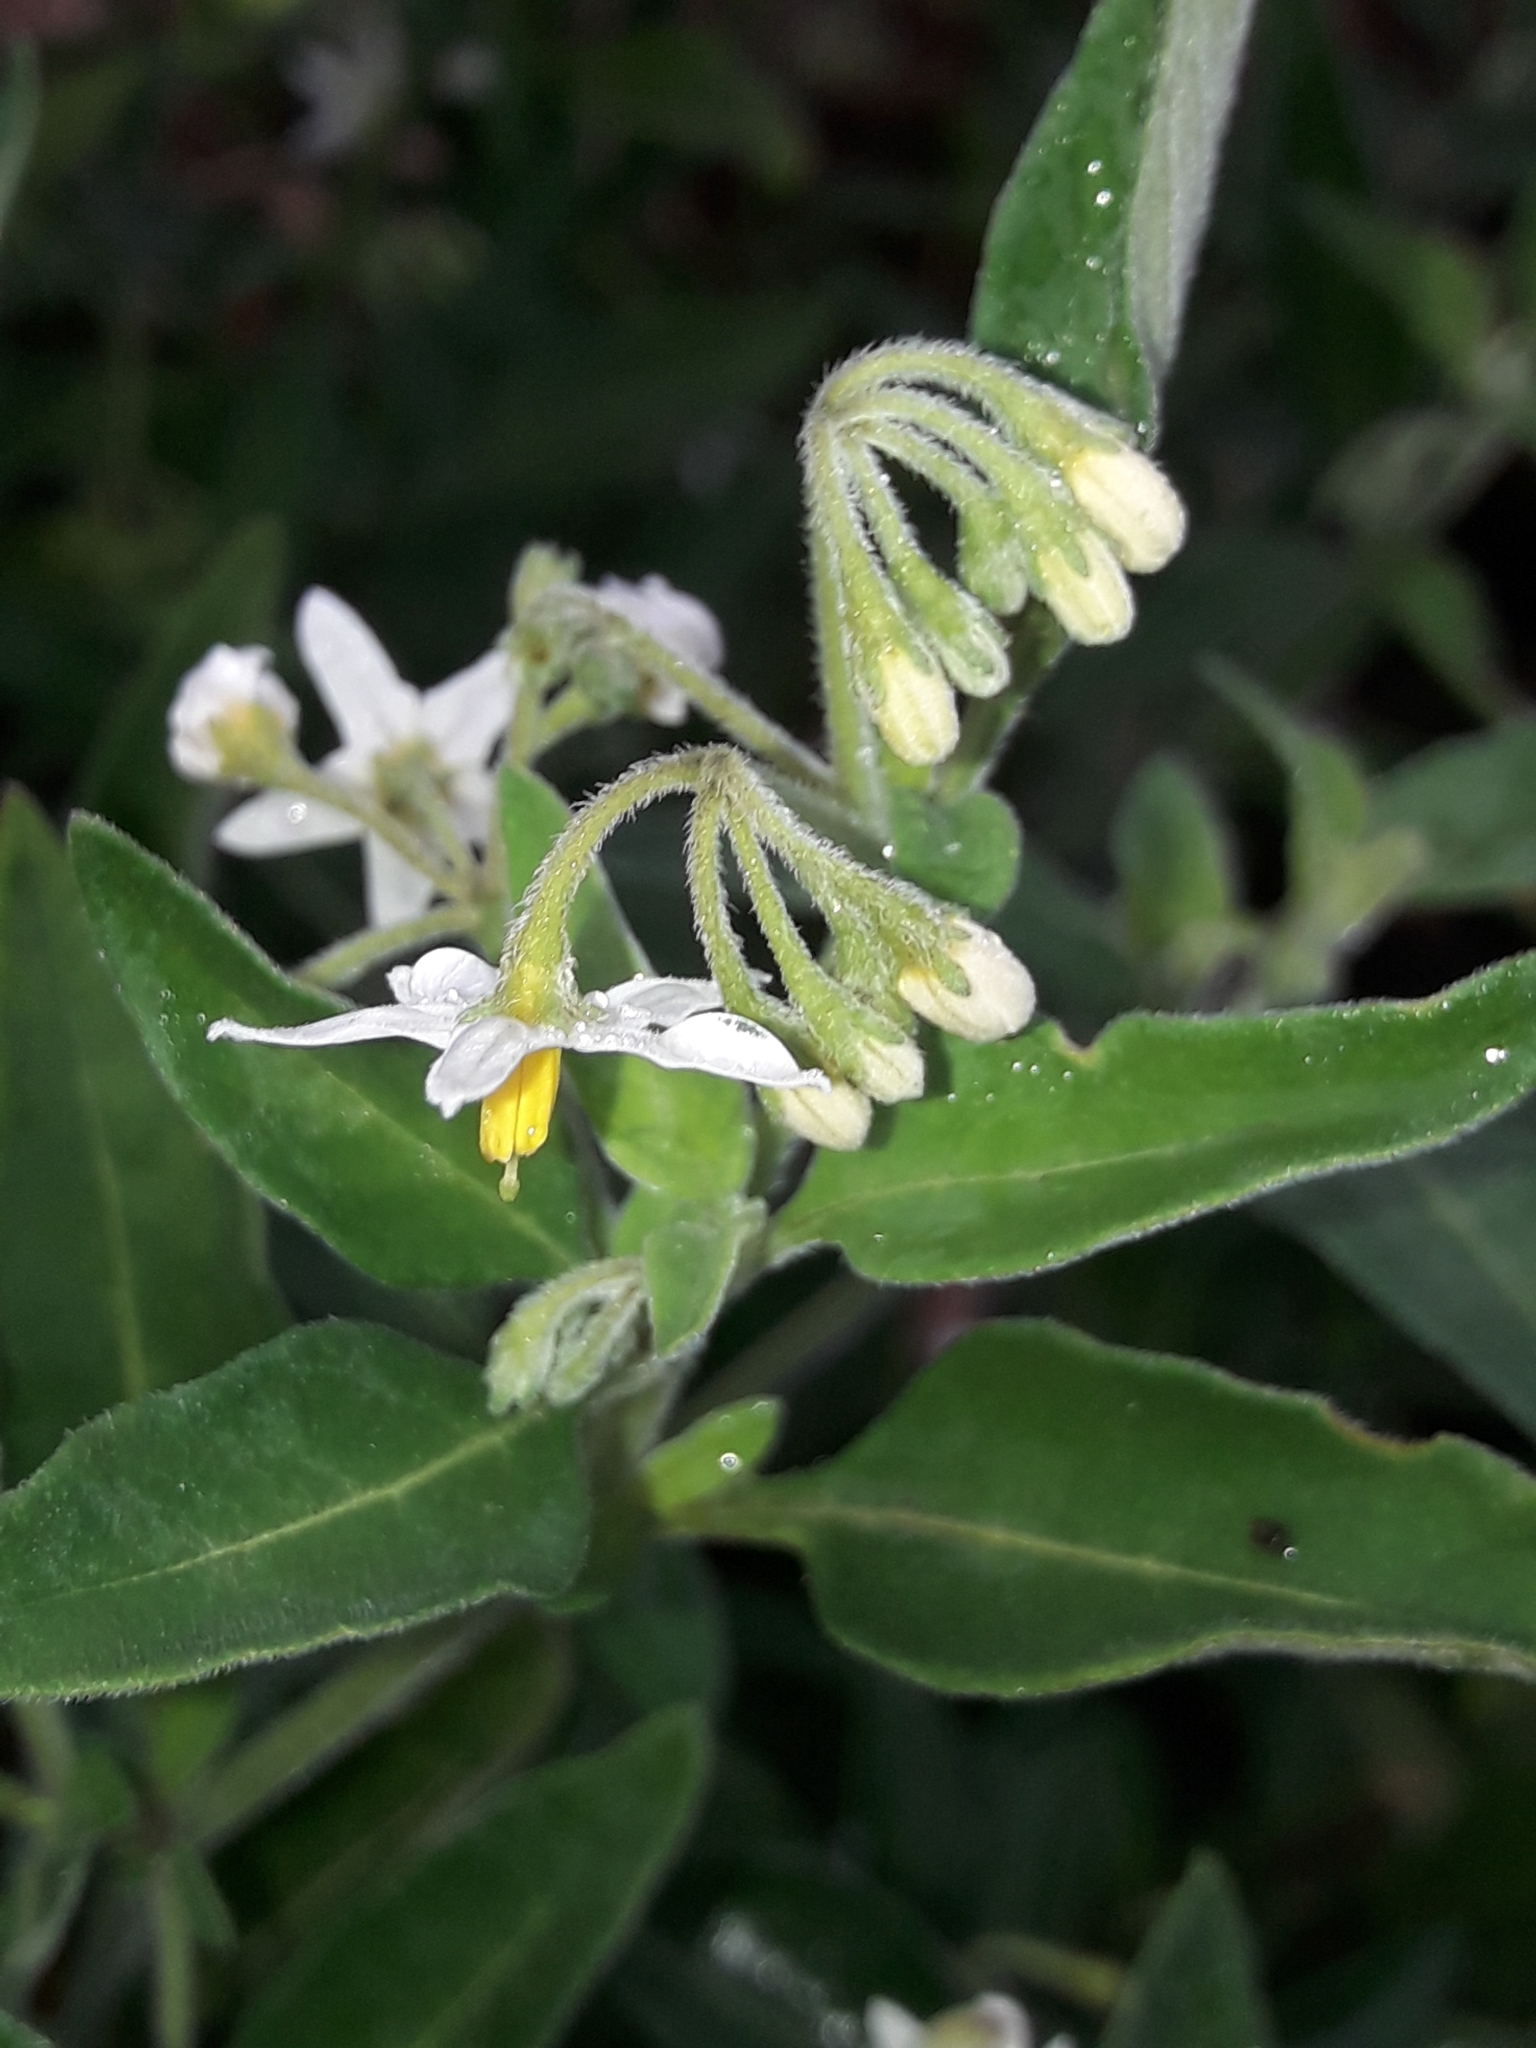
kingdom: Plantae
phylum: Tracheophyta
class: Magnoliopsida
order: Solanales
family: Solanaceae
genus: Solanum
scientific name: Solanum chenopodioides
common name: Tall nightshade
